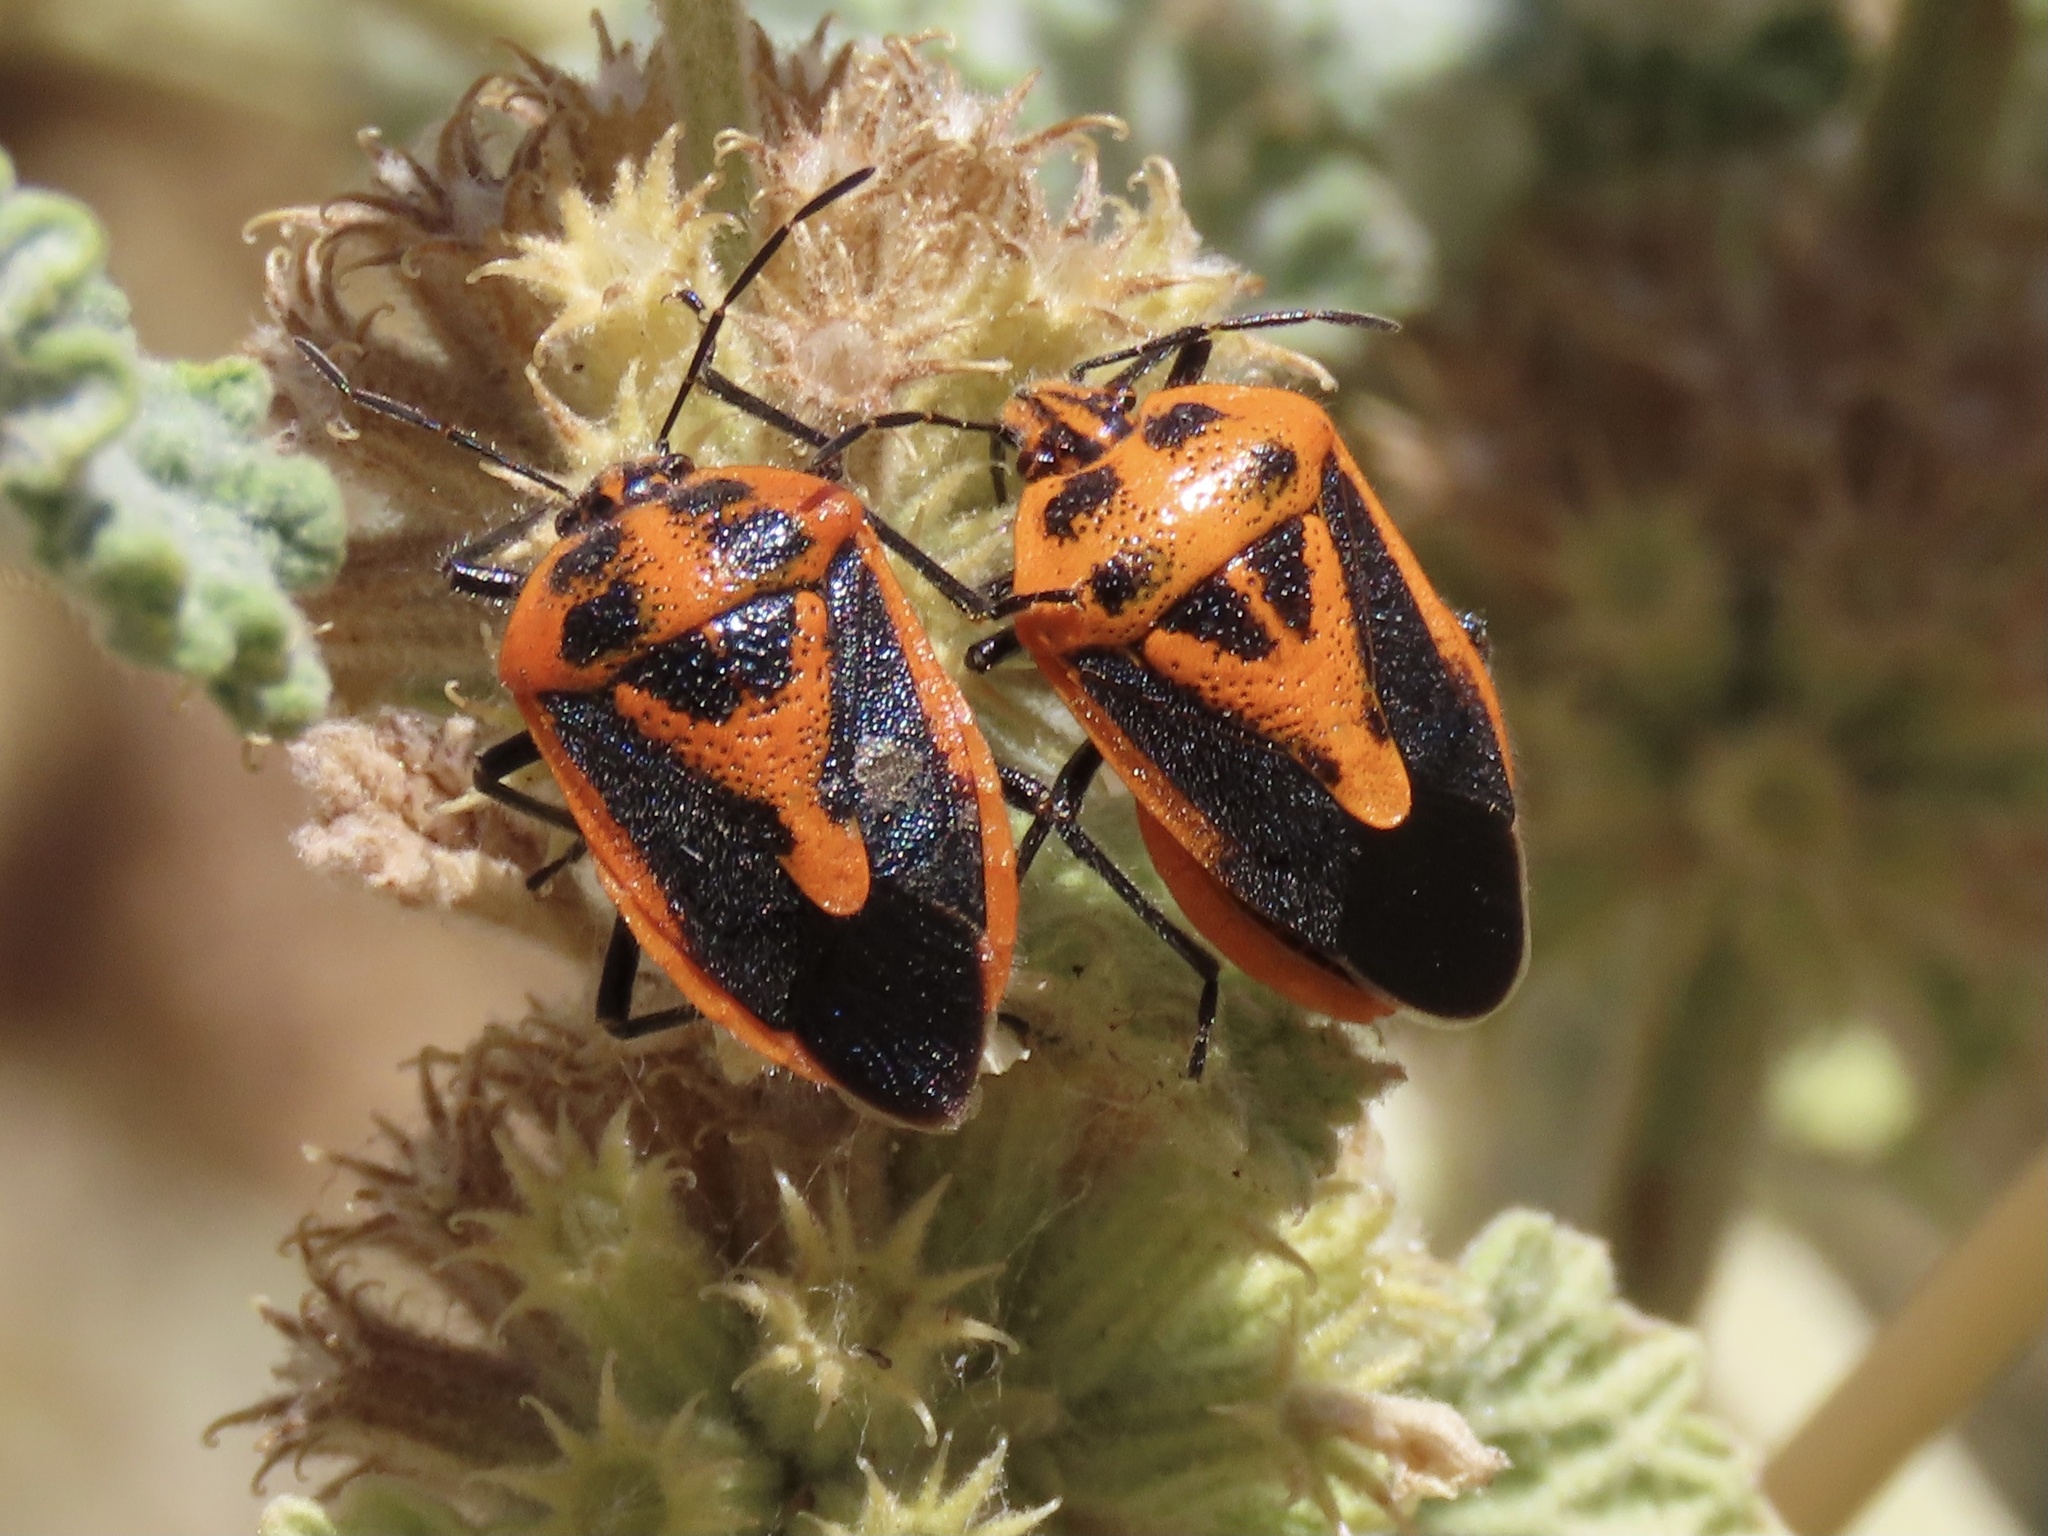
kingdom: Animalia
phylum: Arthropoda
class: Insecta
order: Hemiptera
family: Pentatomidae
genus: Agonoscelis
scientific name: Agonoscelis rutila
